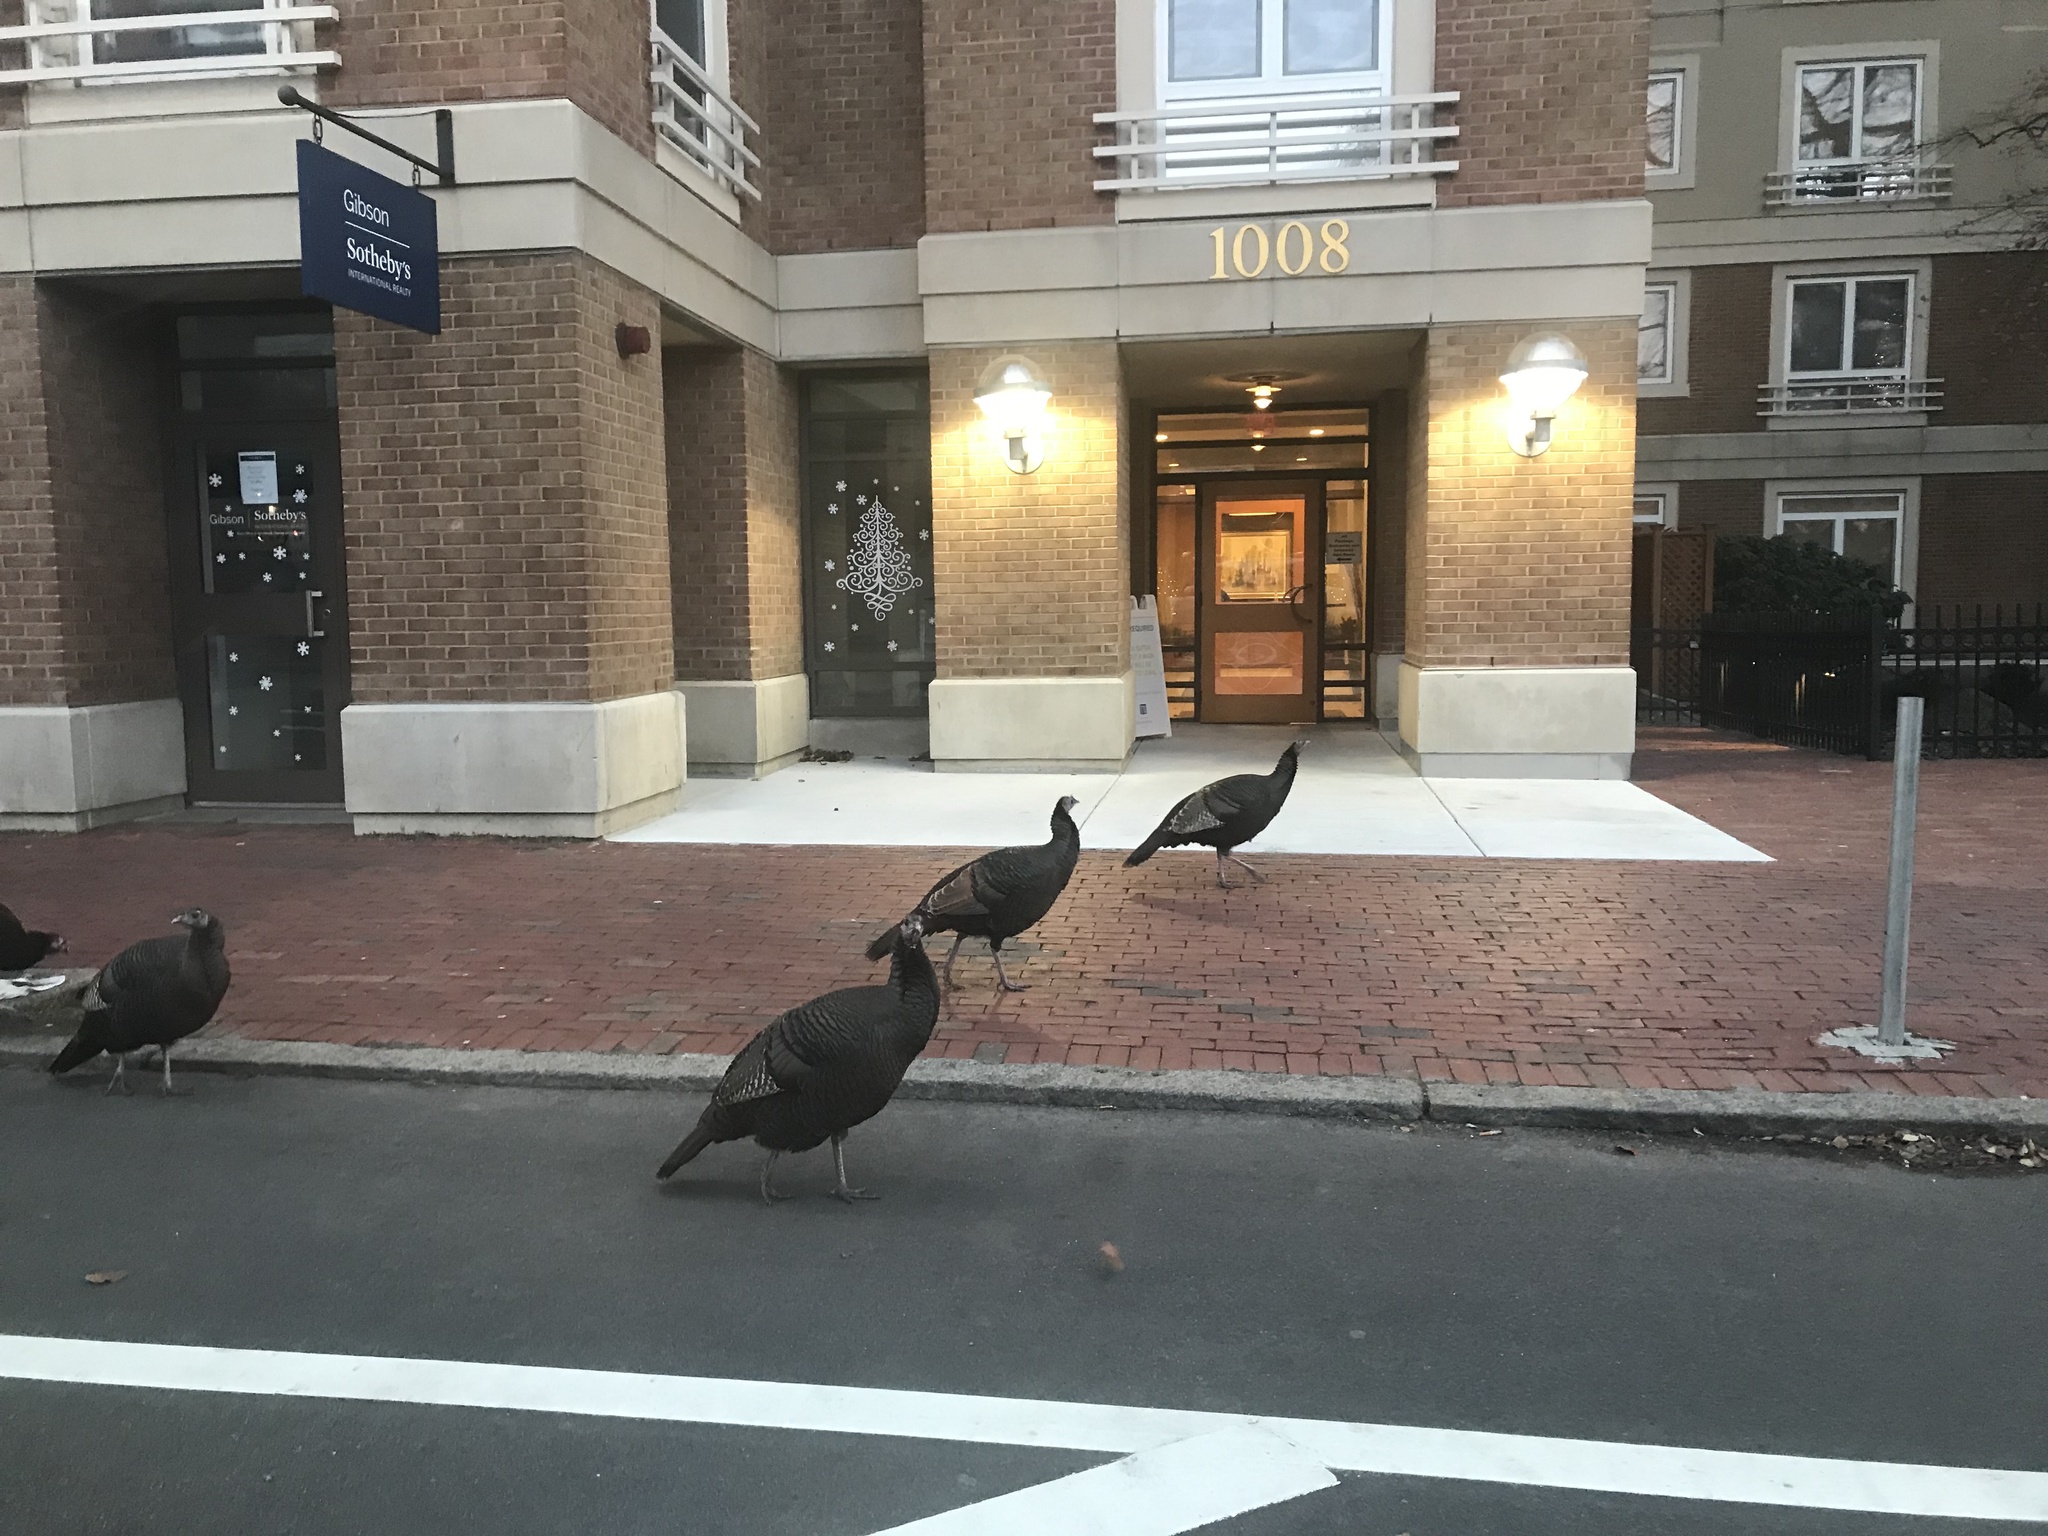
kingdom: Animalia
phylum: Chordata
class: Aves
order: Galliformes
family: Phasianidae
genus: Meleagris
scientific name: Meleagris gallopavo
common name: Wild turkey
